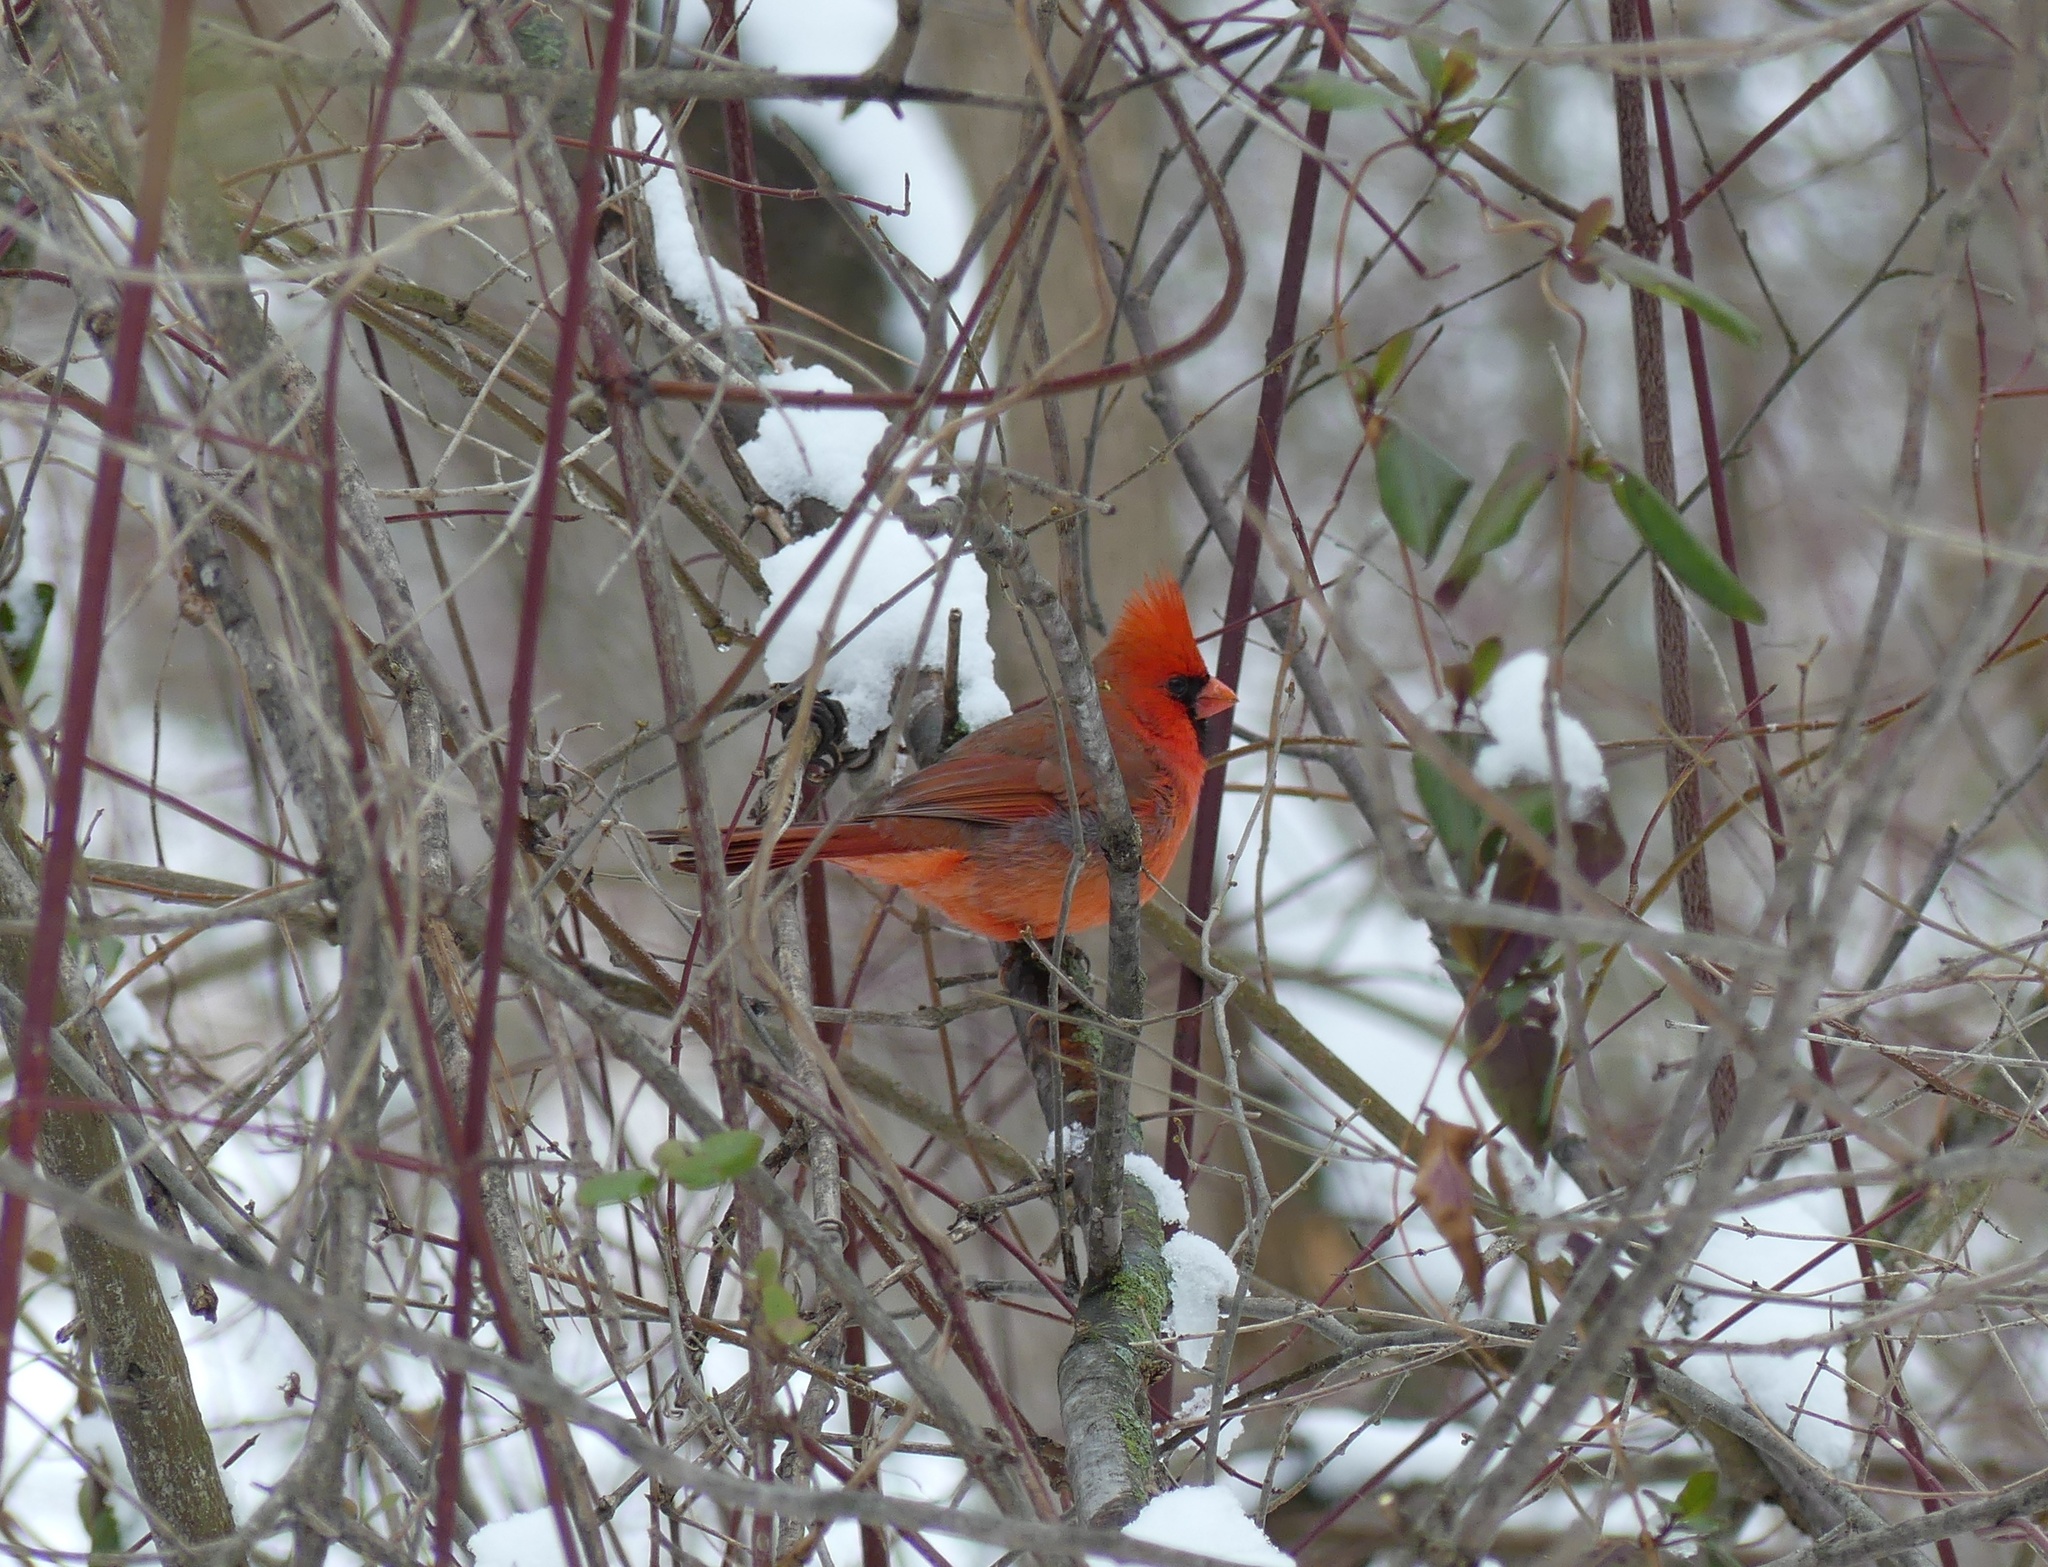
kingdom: Animalia
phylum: Chordata
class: Aves
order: Passeriformes
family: Cardinalidae
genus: Cardinalis
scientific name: Cardinalis cardinalis
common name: Northern cardinal
